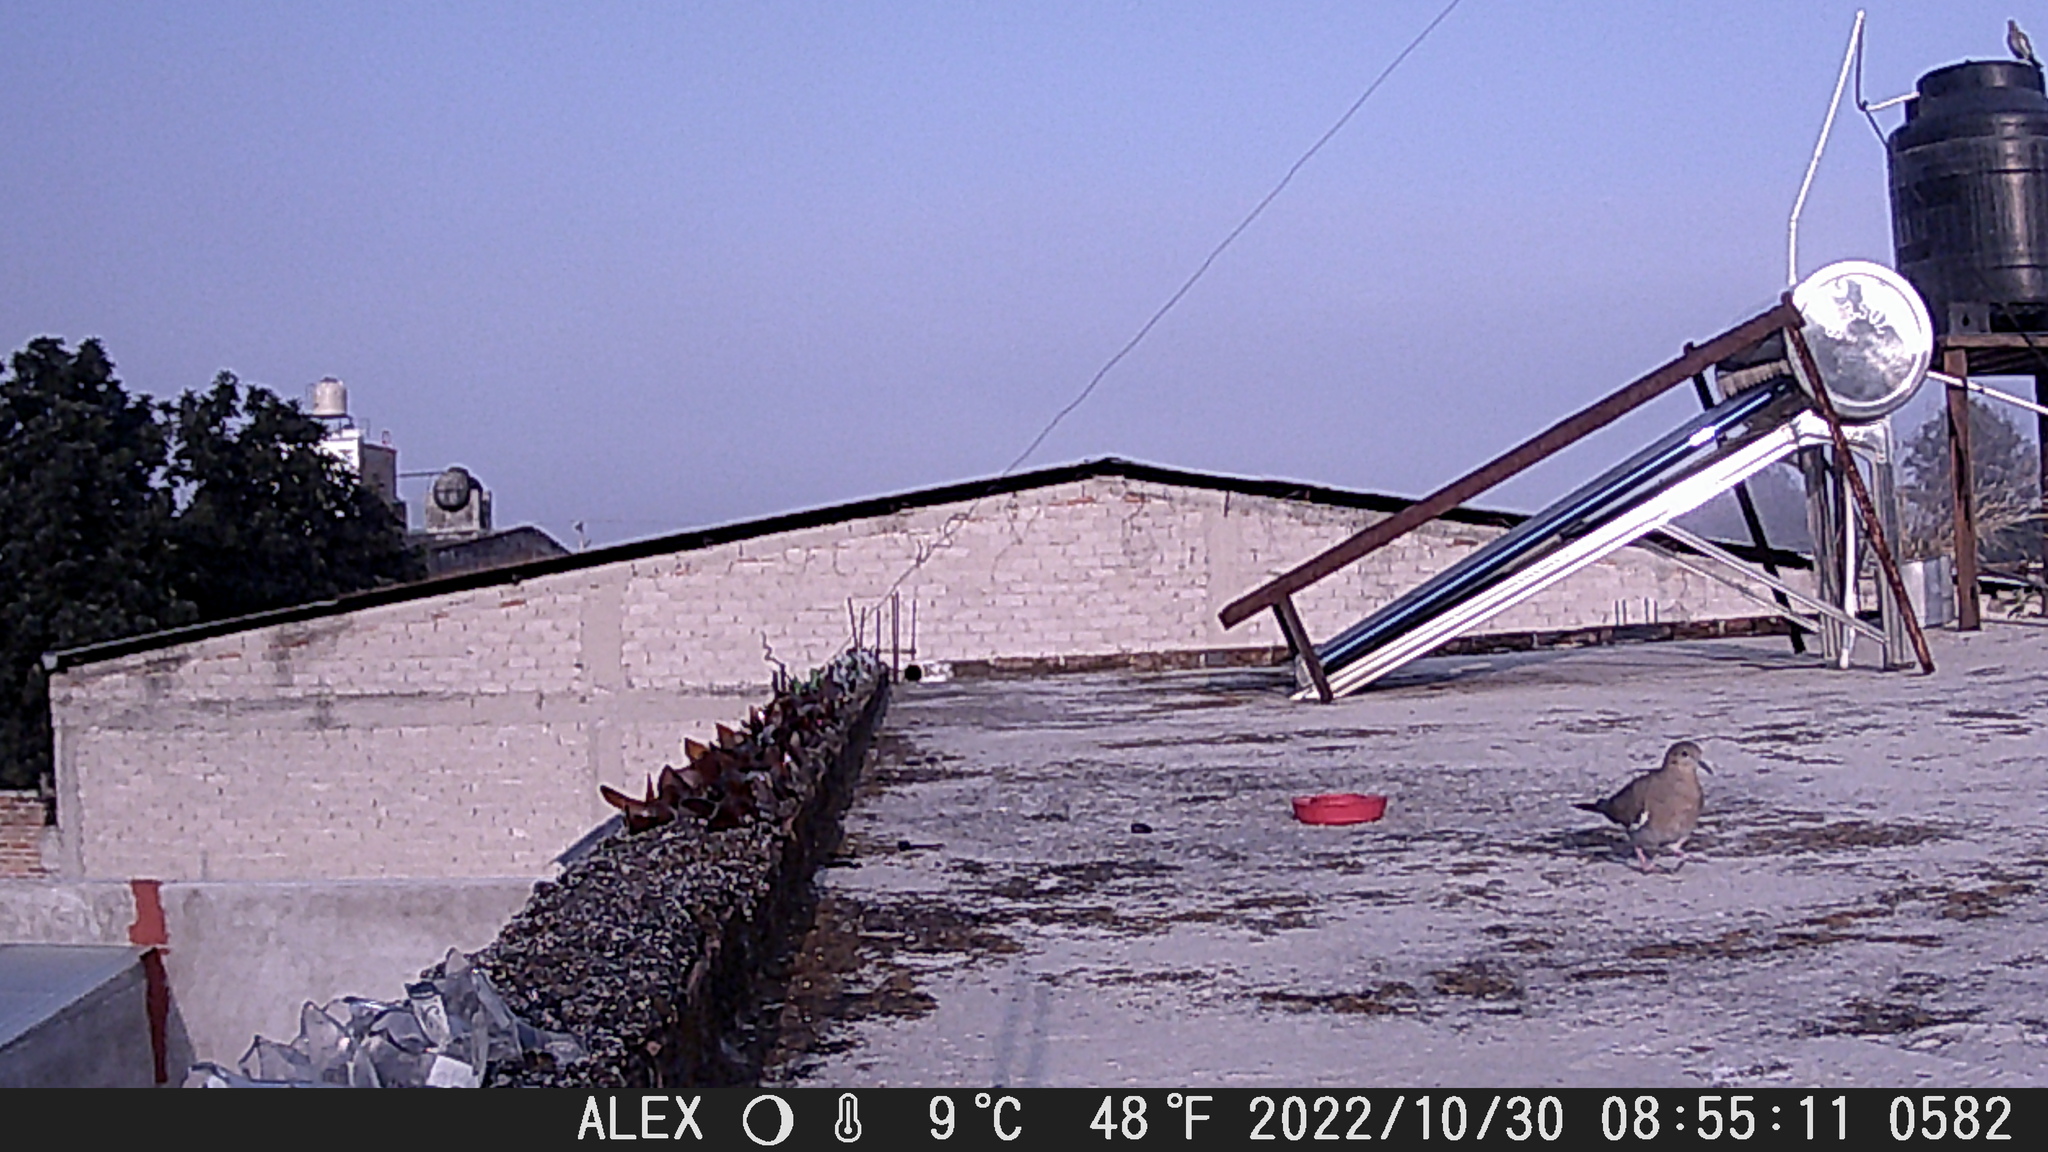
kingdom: Animalia
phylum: Chordata
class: Aves
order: Columbiformes
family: Columbidae
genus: Zenaida
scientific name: Zenaida asiatica
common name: White-winged dove
